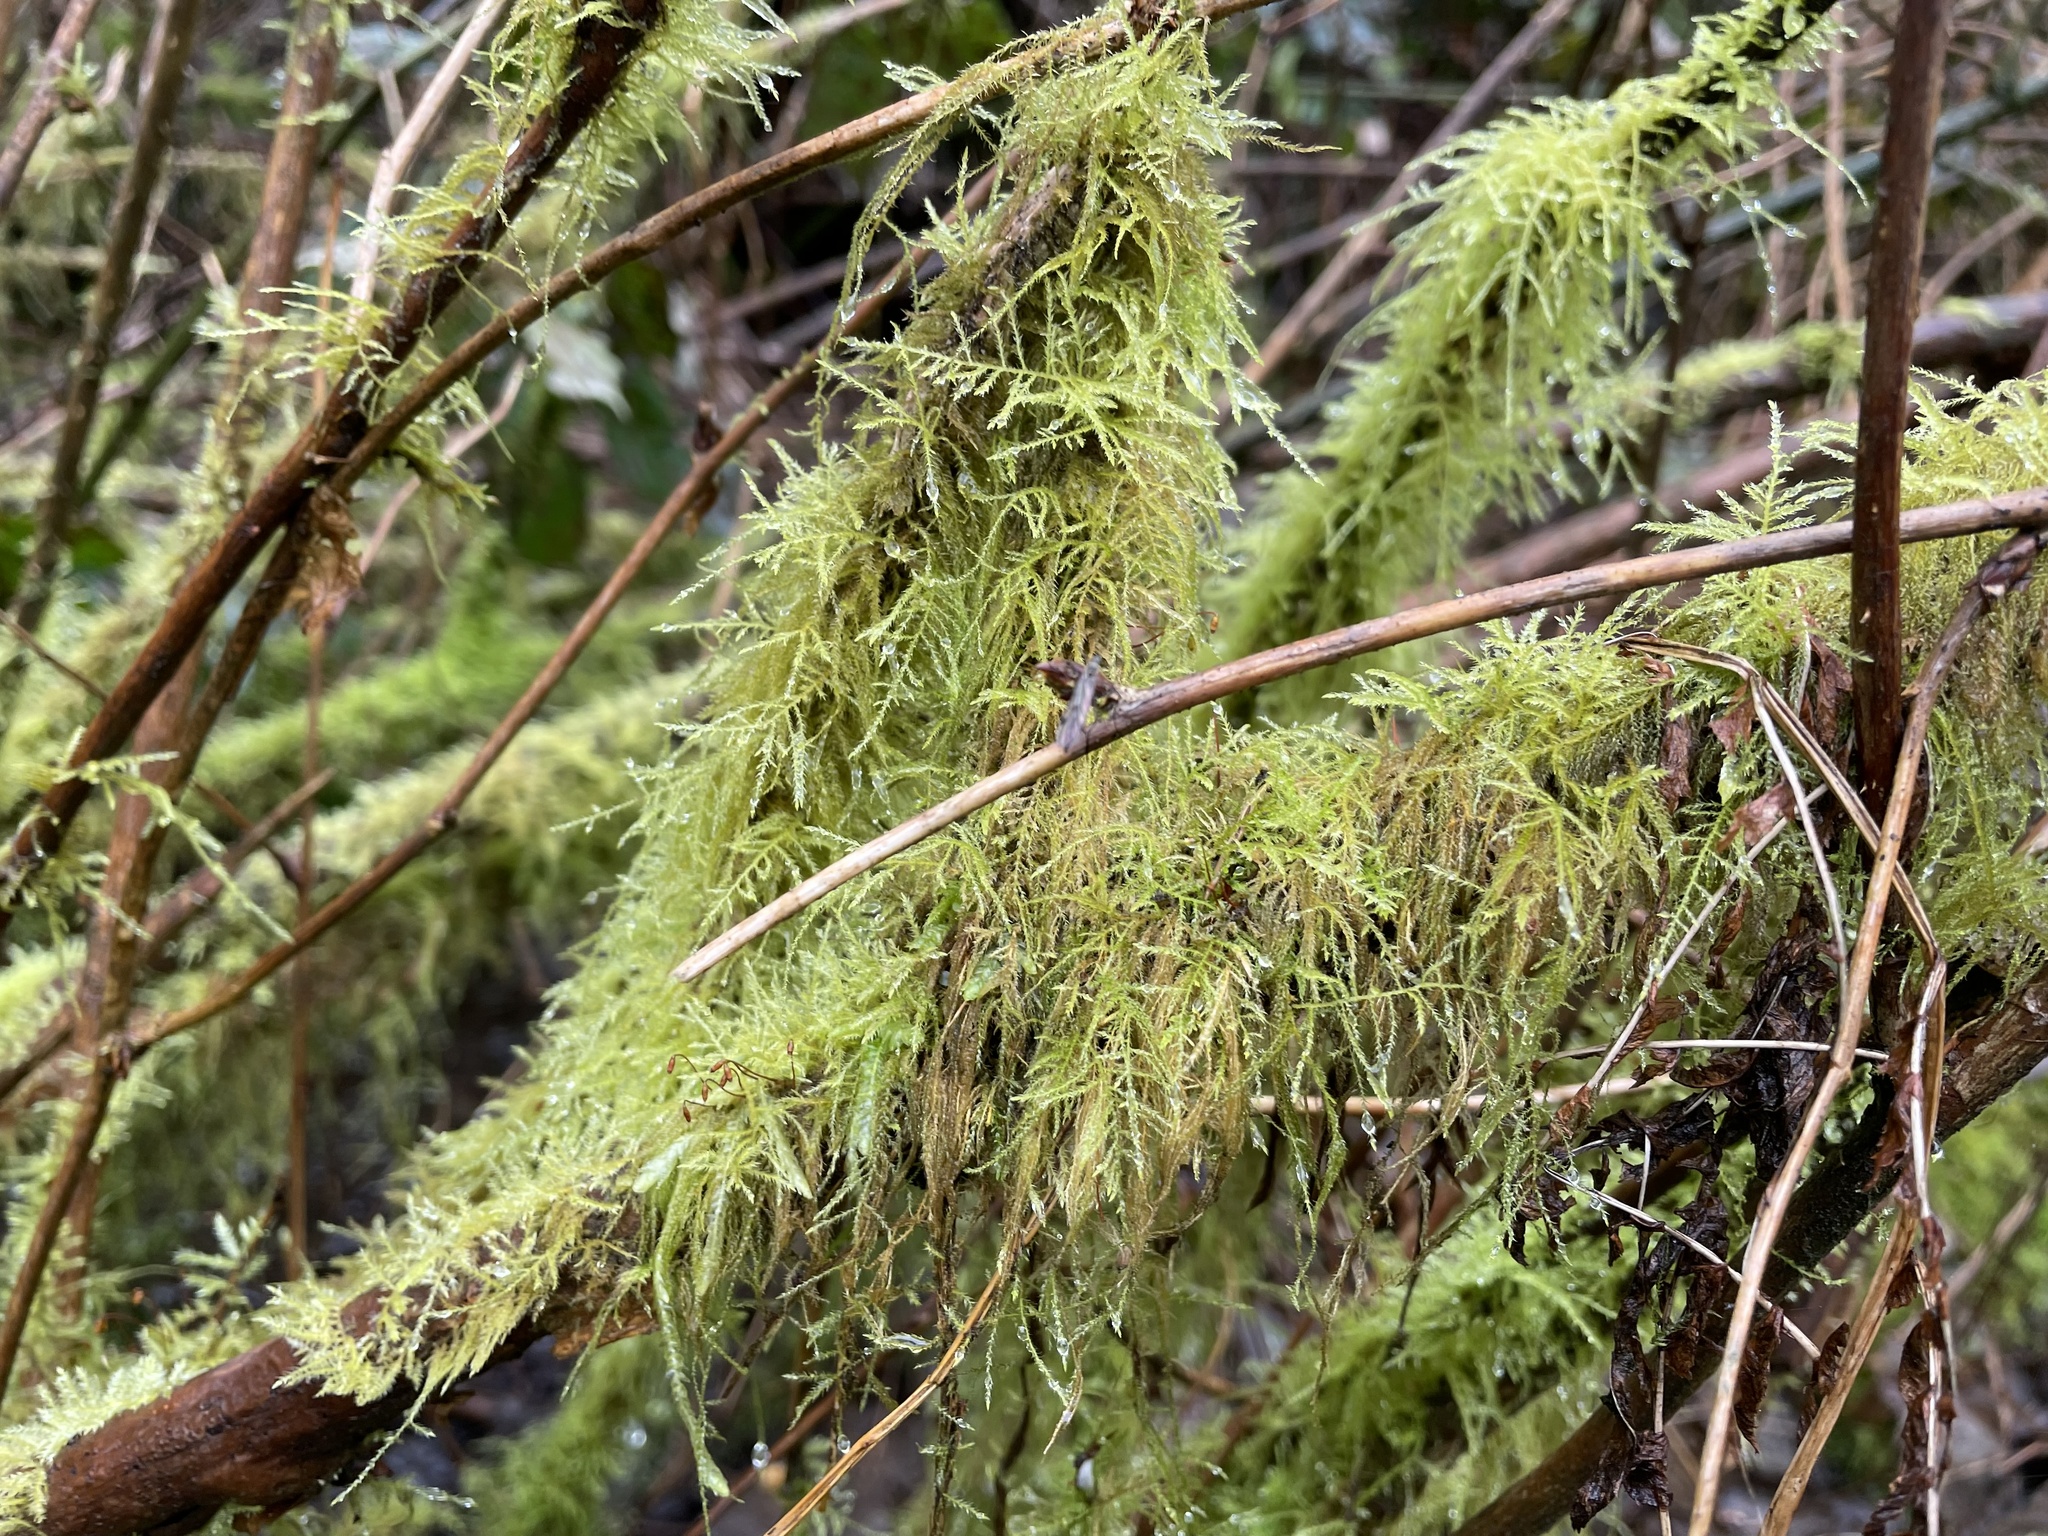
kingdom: Plantae
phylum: Bryophyta
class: Bryopsida
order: Hypnales
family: Lembophyllaceae
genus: Pseudisothecium
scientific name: Pseudisothecium stoloniferum
